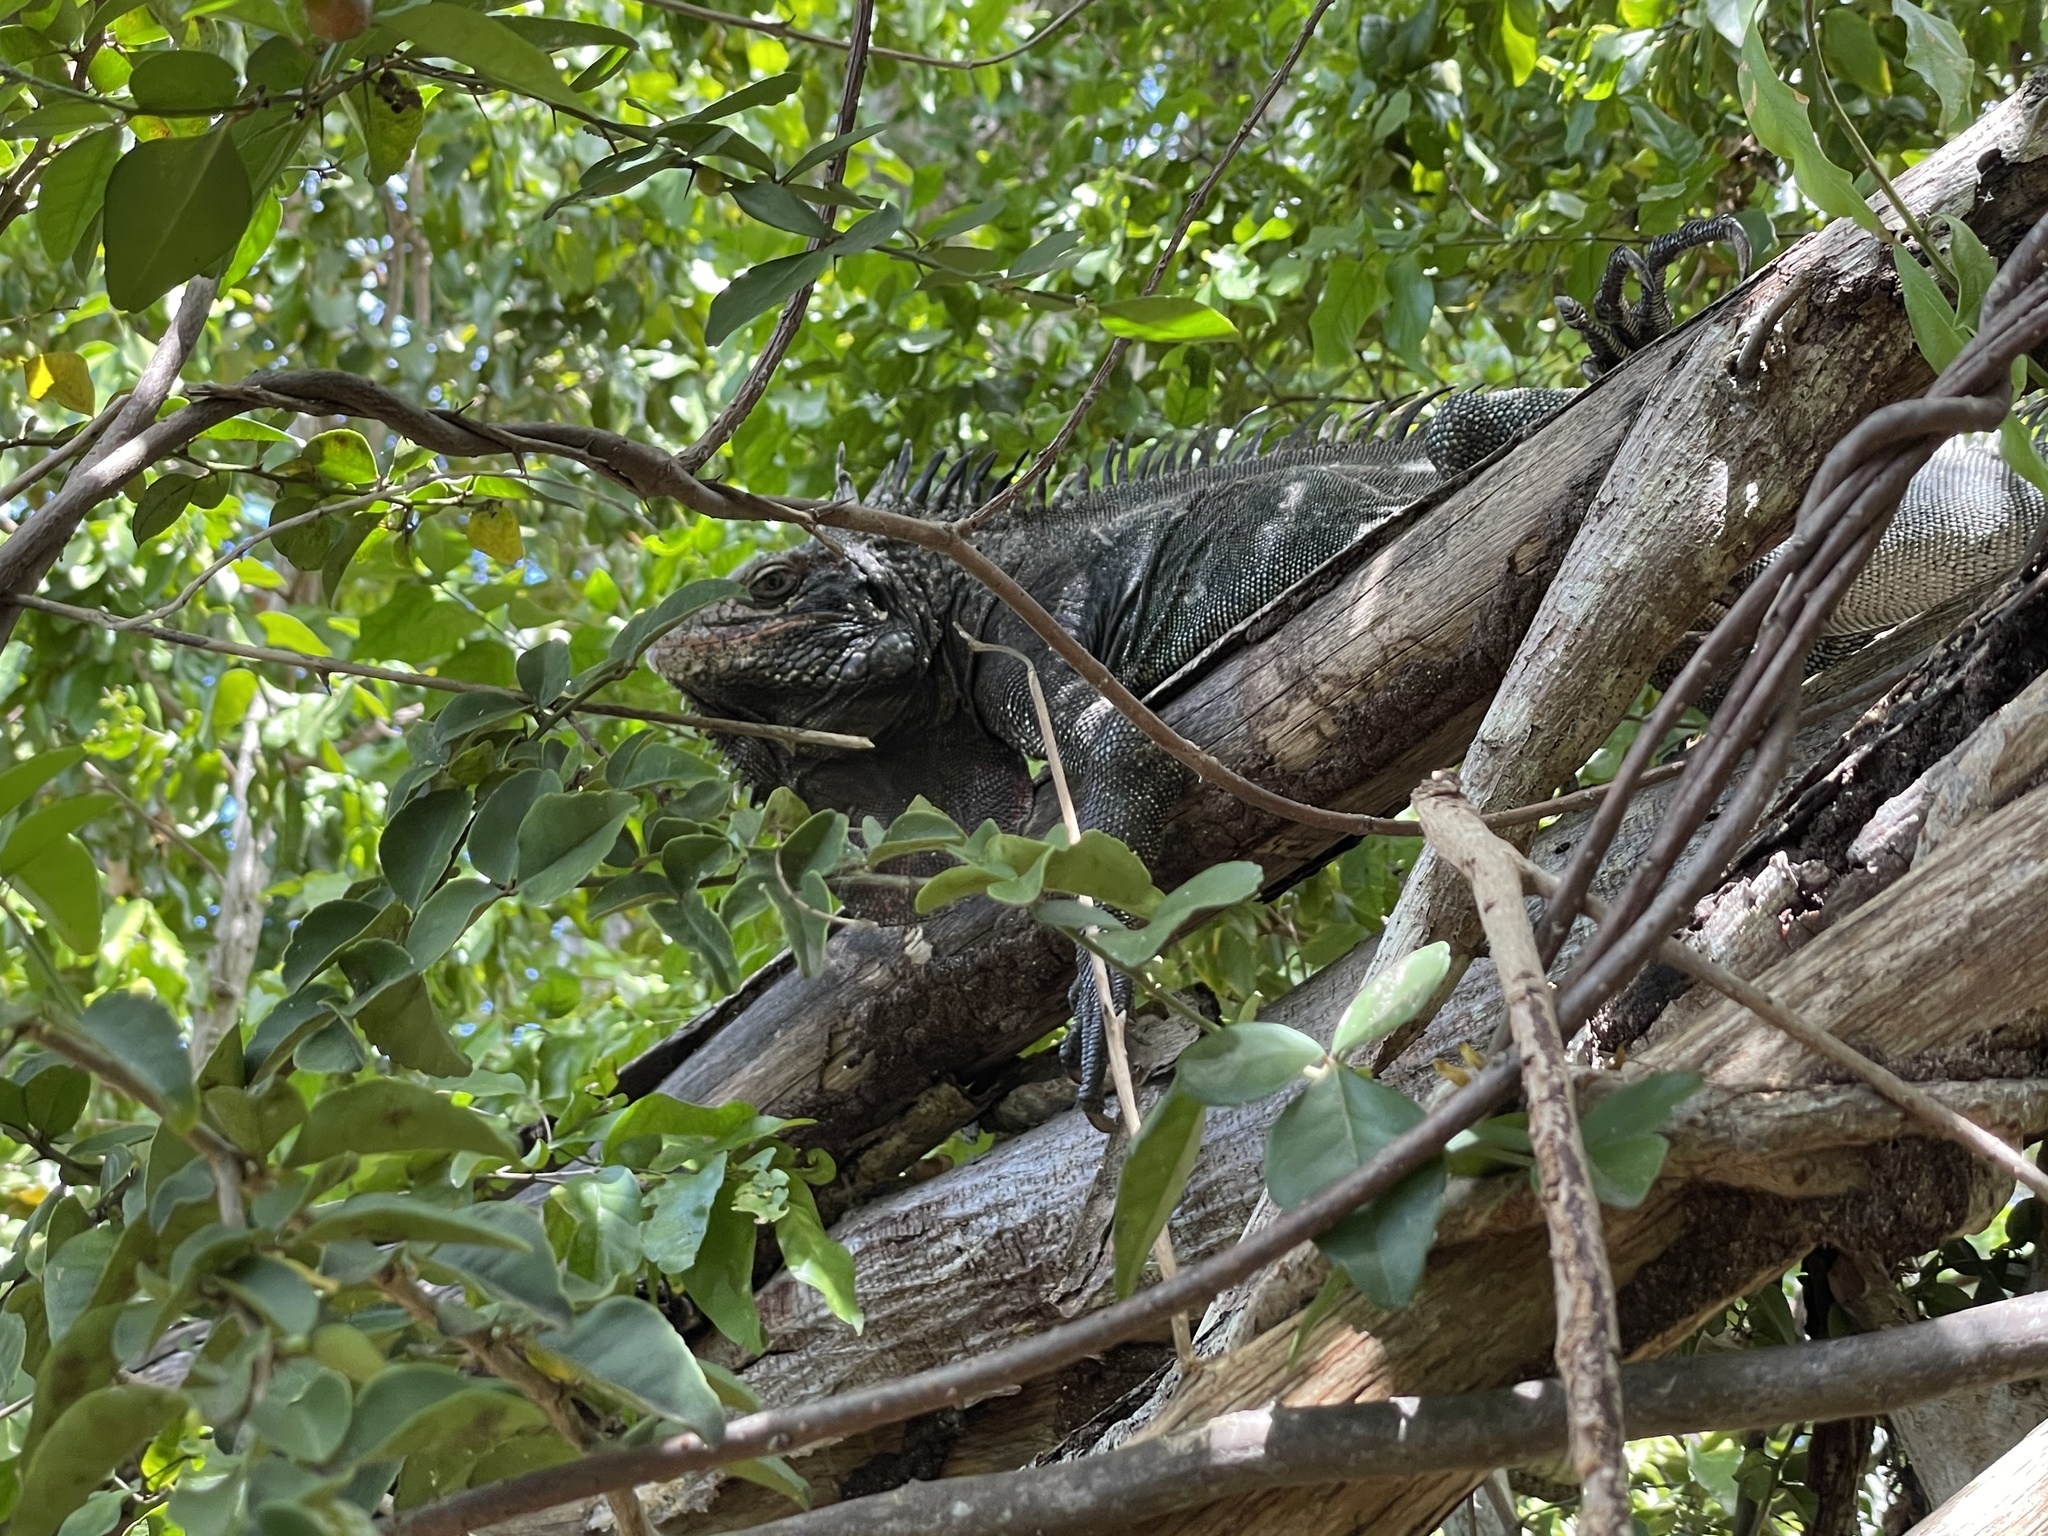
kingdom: Animalia
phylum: Chordata
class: Squamata
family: Iguanidae
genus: Iguana
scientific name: Iguana iguana
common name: Green iguana
